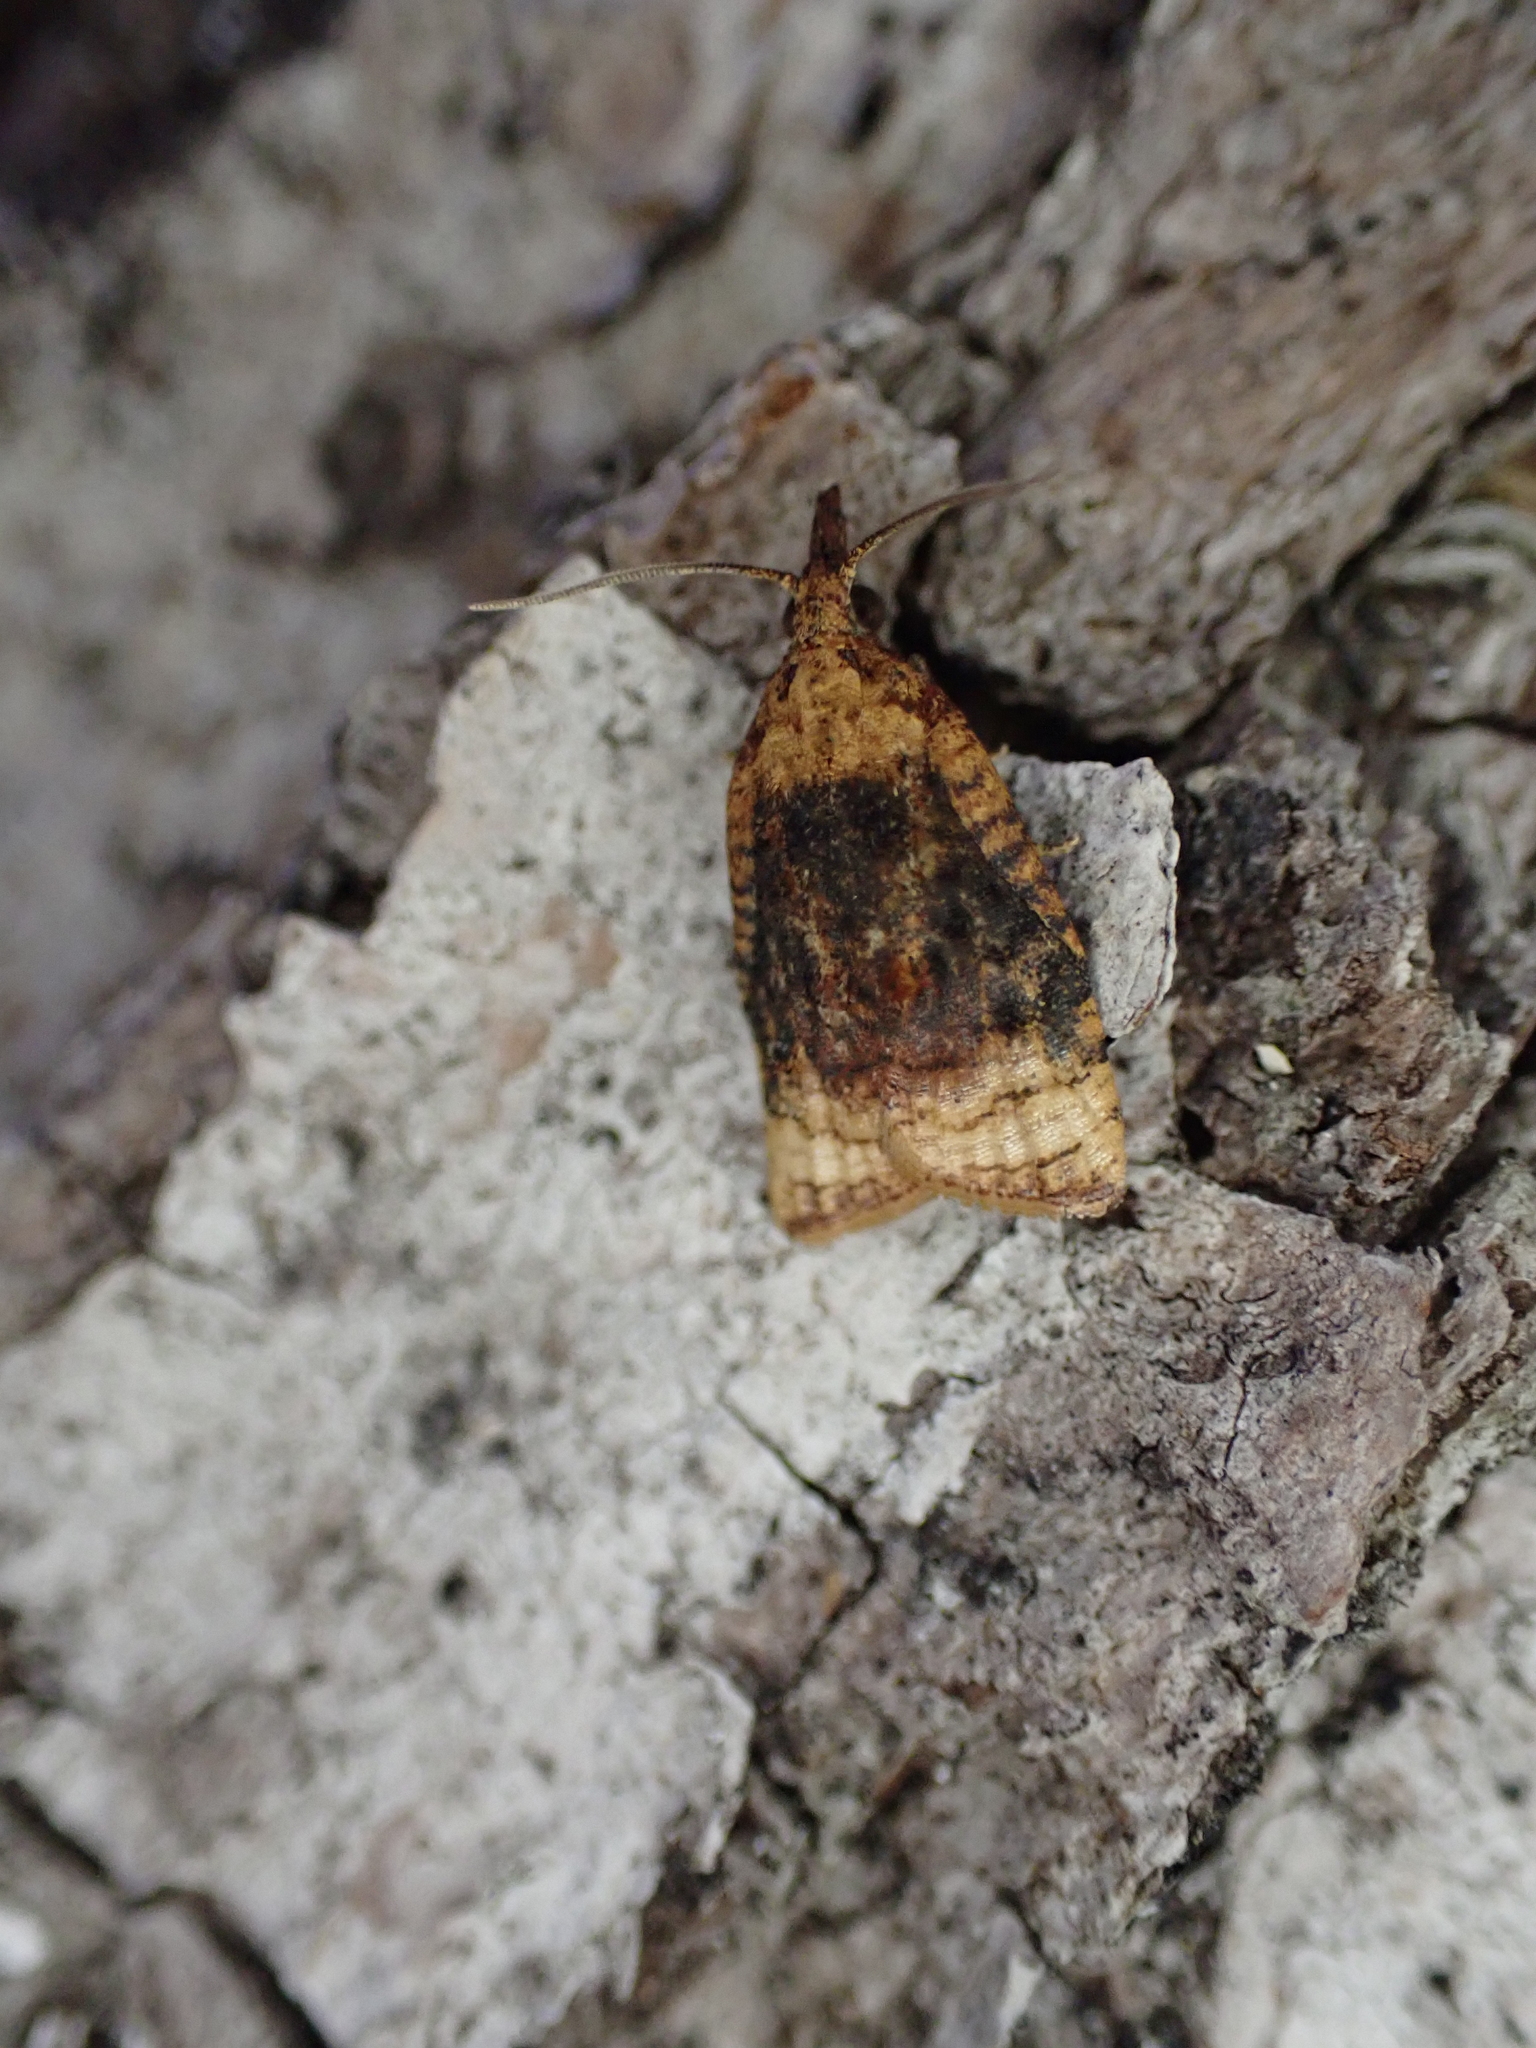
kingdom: Animalia
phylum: Arthropoda
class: Insecta
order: Lepidoptera
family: Tortricidae
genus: Platynota
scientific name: Platynota flavedana
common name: Black-shaded platynota moth
